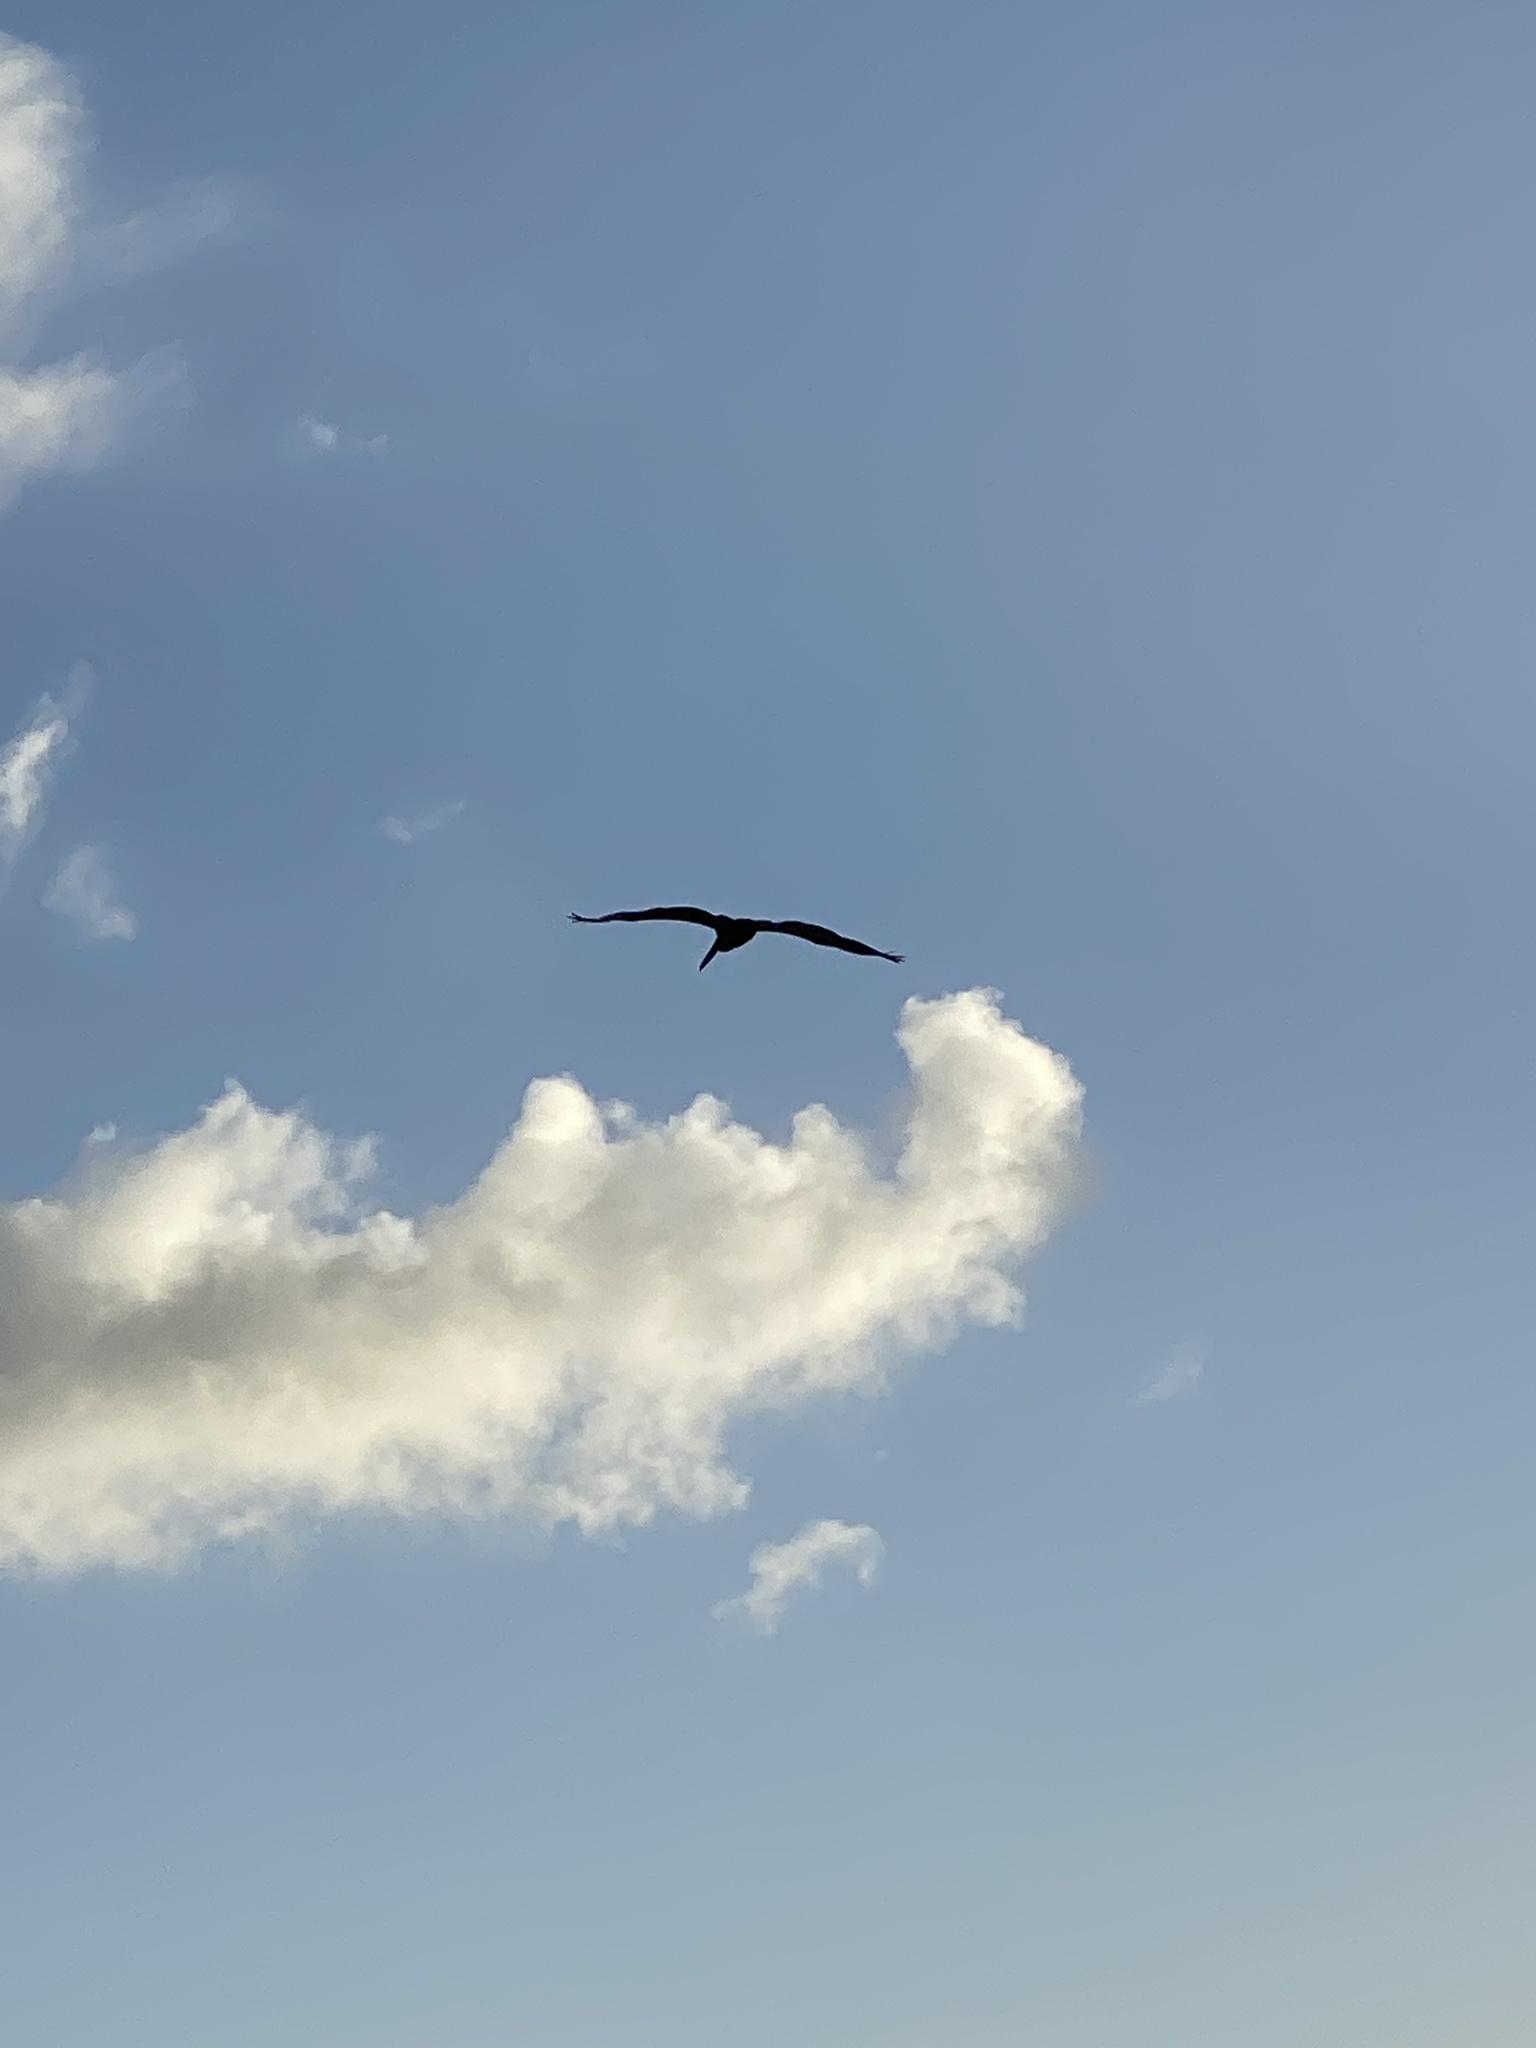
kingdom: Animalia
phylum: Chordata
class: Aves
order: Pelecaniformes
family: Pelecanidae
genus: Pelecanus
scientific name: Pelecanus occidentalis
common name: Brown pelican
